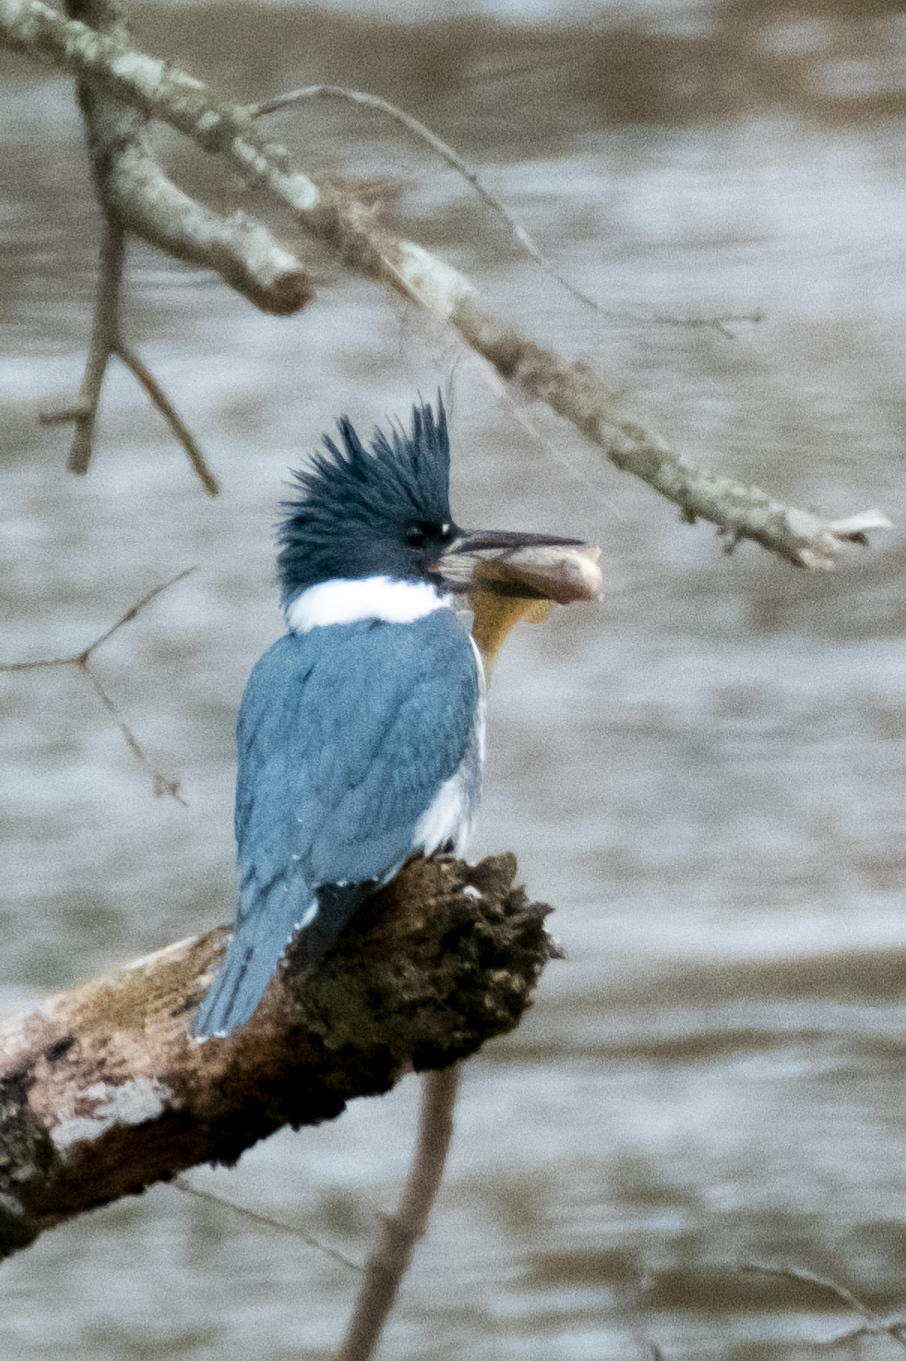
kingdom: Animalia
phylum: Chordata
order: Perciformes
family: Centrarchidae
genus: Lepomis
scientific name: Lepomis gibbosus
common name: Pumpkinseed
